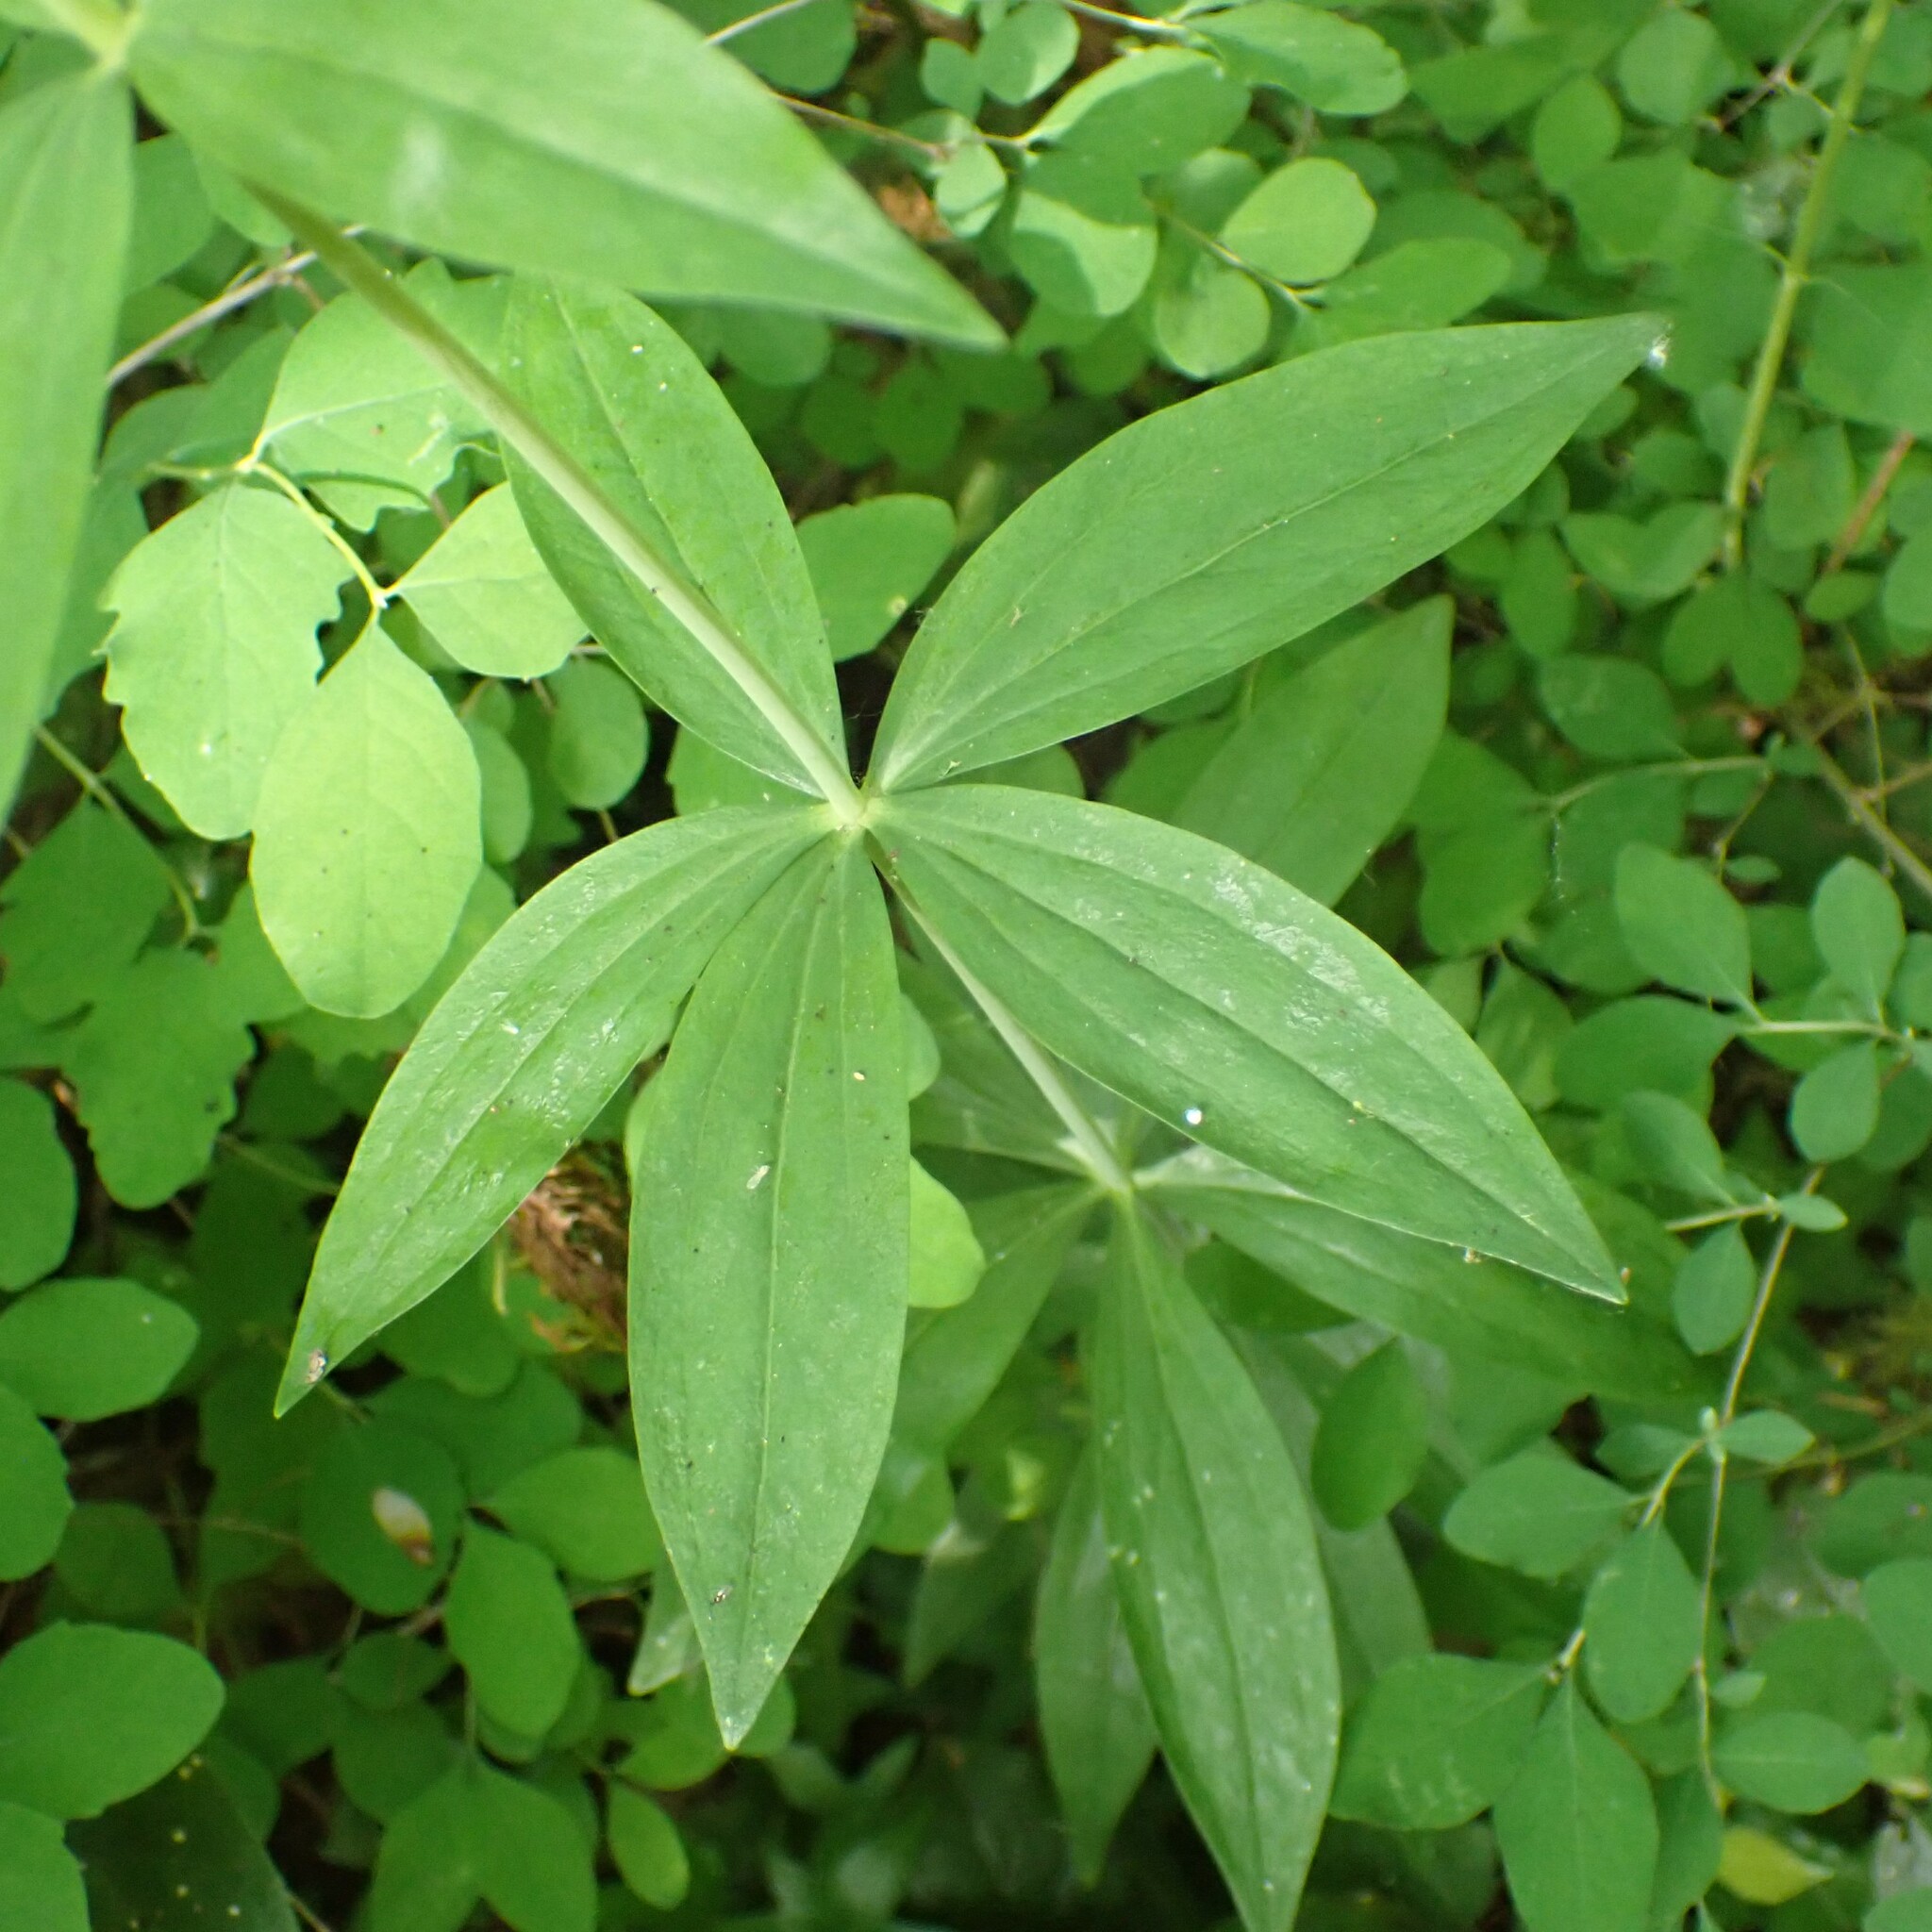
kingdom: Plantae
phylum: Tracheophyta
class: Liliopsida
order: Liliales
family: Liliaceae
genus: Lilium
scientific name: Lilium columbianum
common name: Columbia lily
